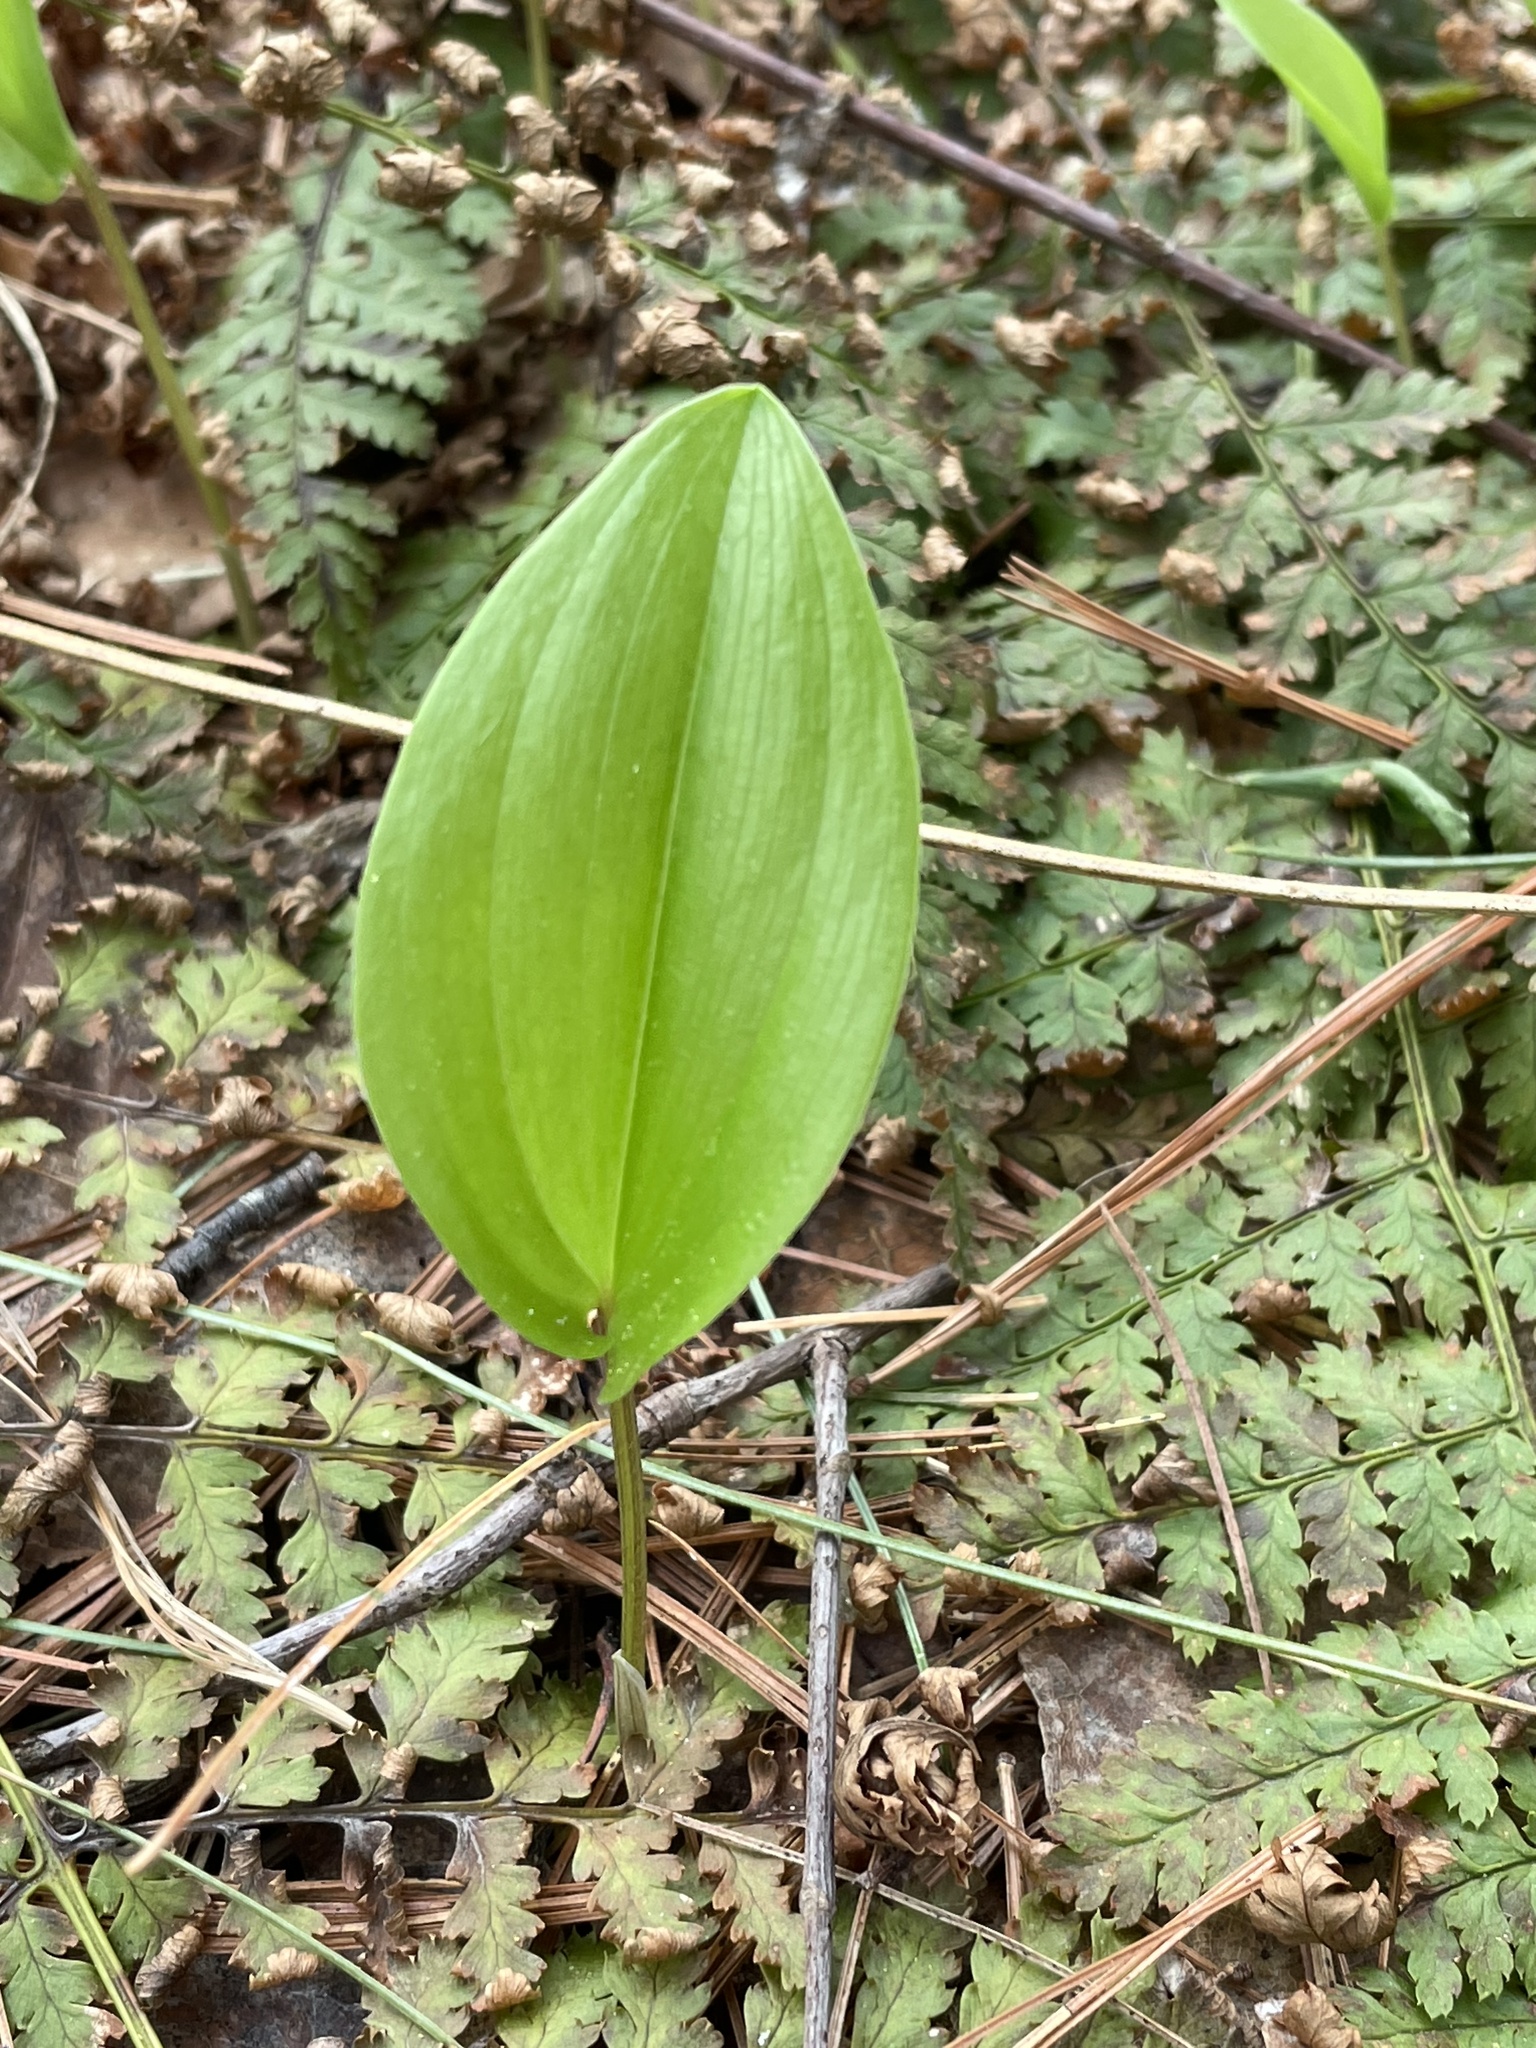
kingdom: Plantae
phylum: Tracheophyta
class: Liliopsida
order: Asparagales
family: Asparagaceae
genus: Maianthemum
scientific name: Maianthemum canadense
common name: False lily-of-the-valley
